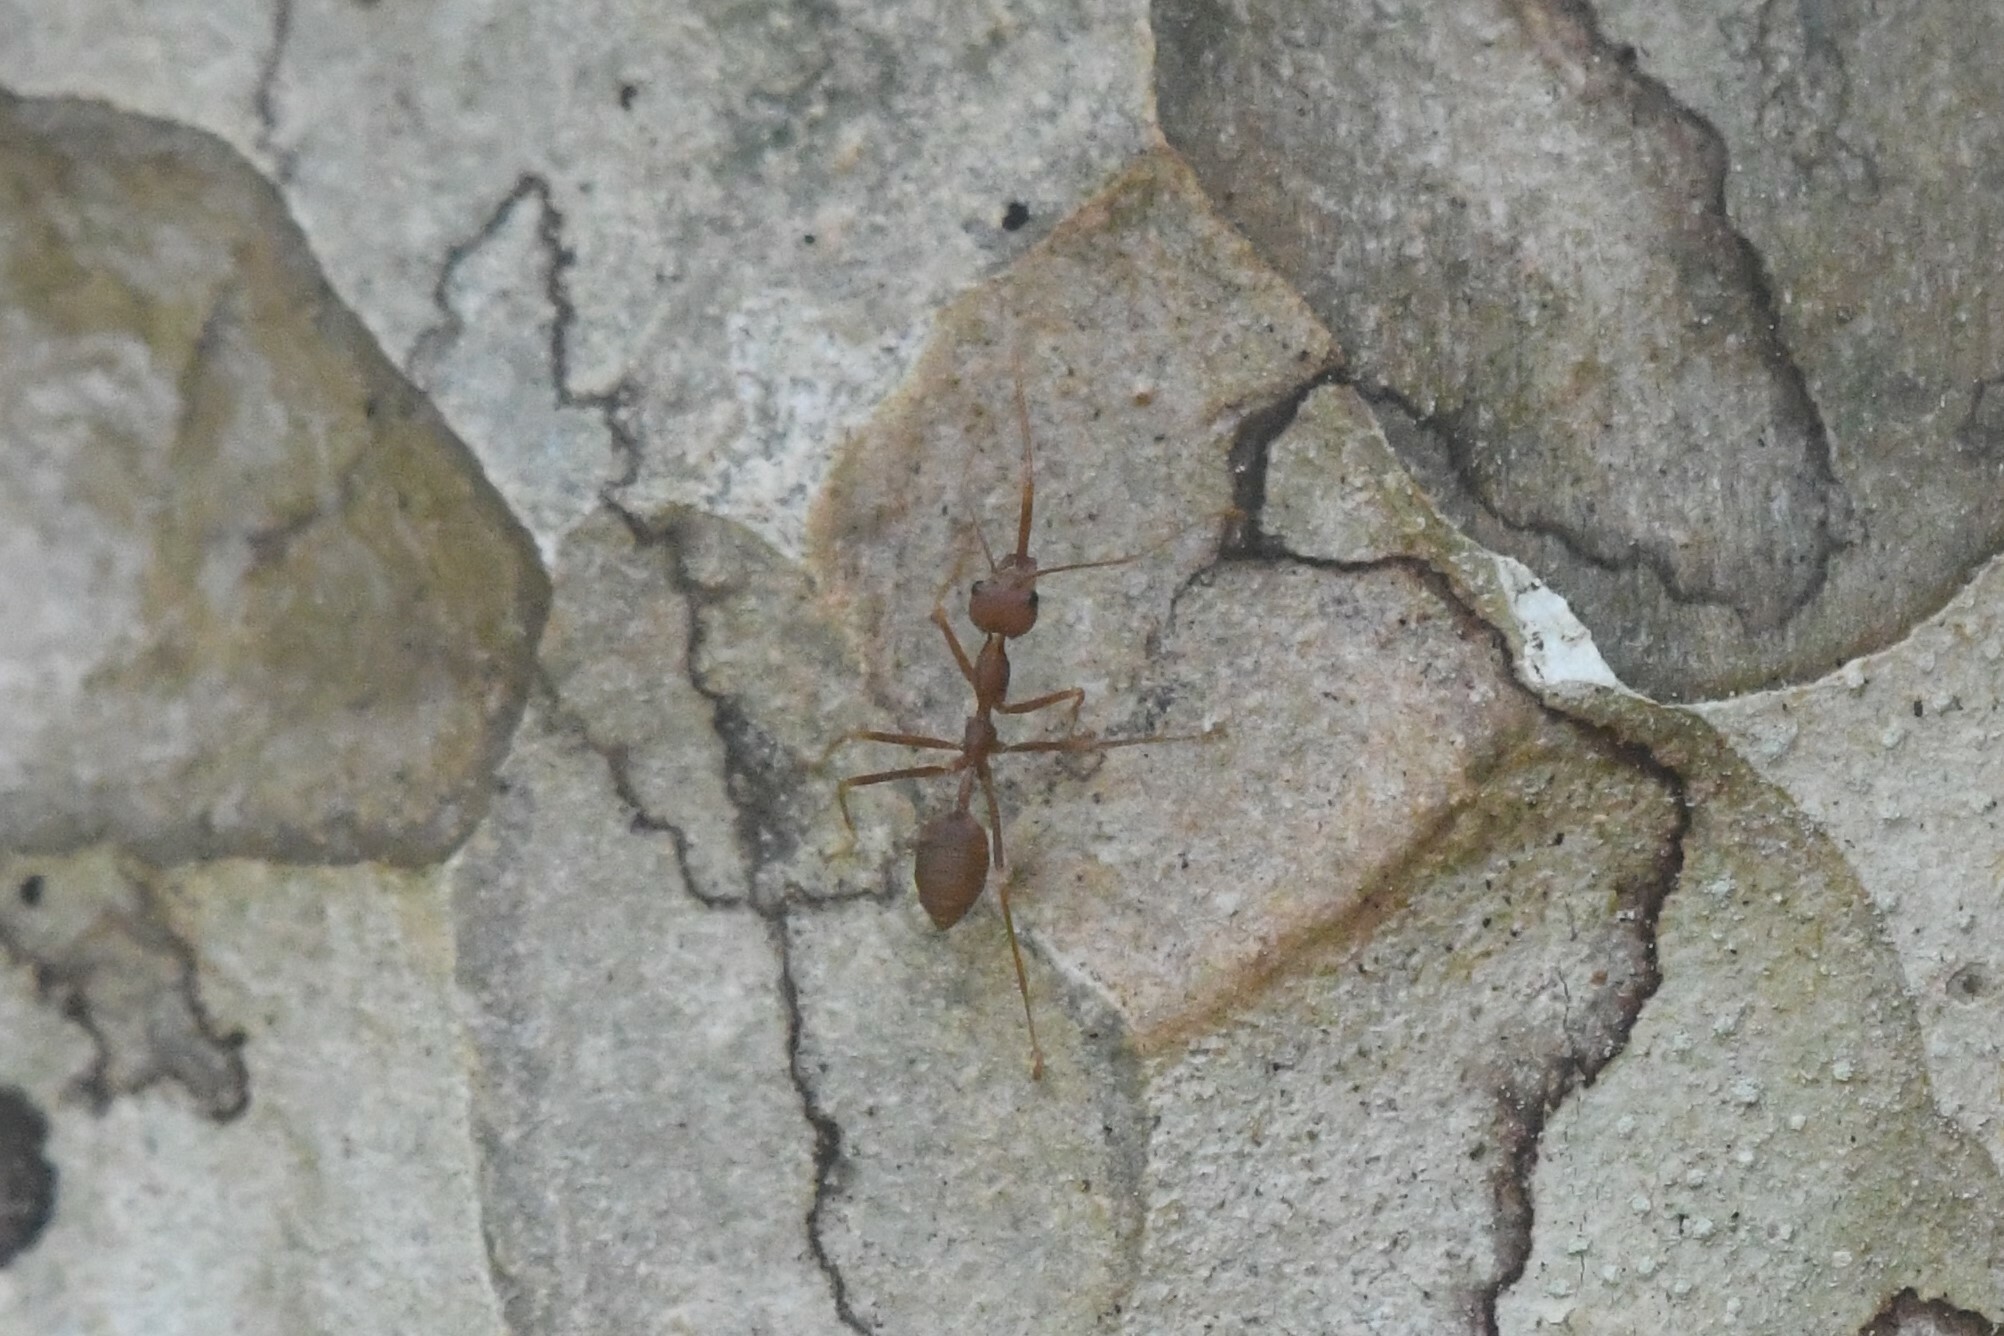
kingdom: Animalia
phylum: Arthropoda
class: Insecta
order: Hymenoptera
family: Formicidae
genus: Oecophylla
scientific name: Oecophylla smaragdina
